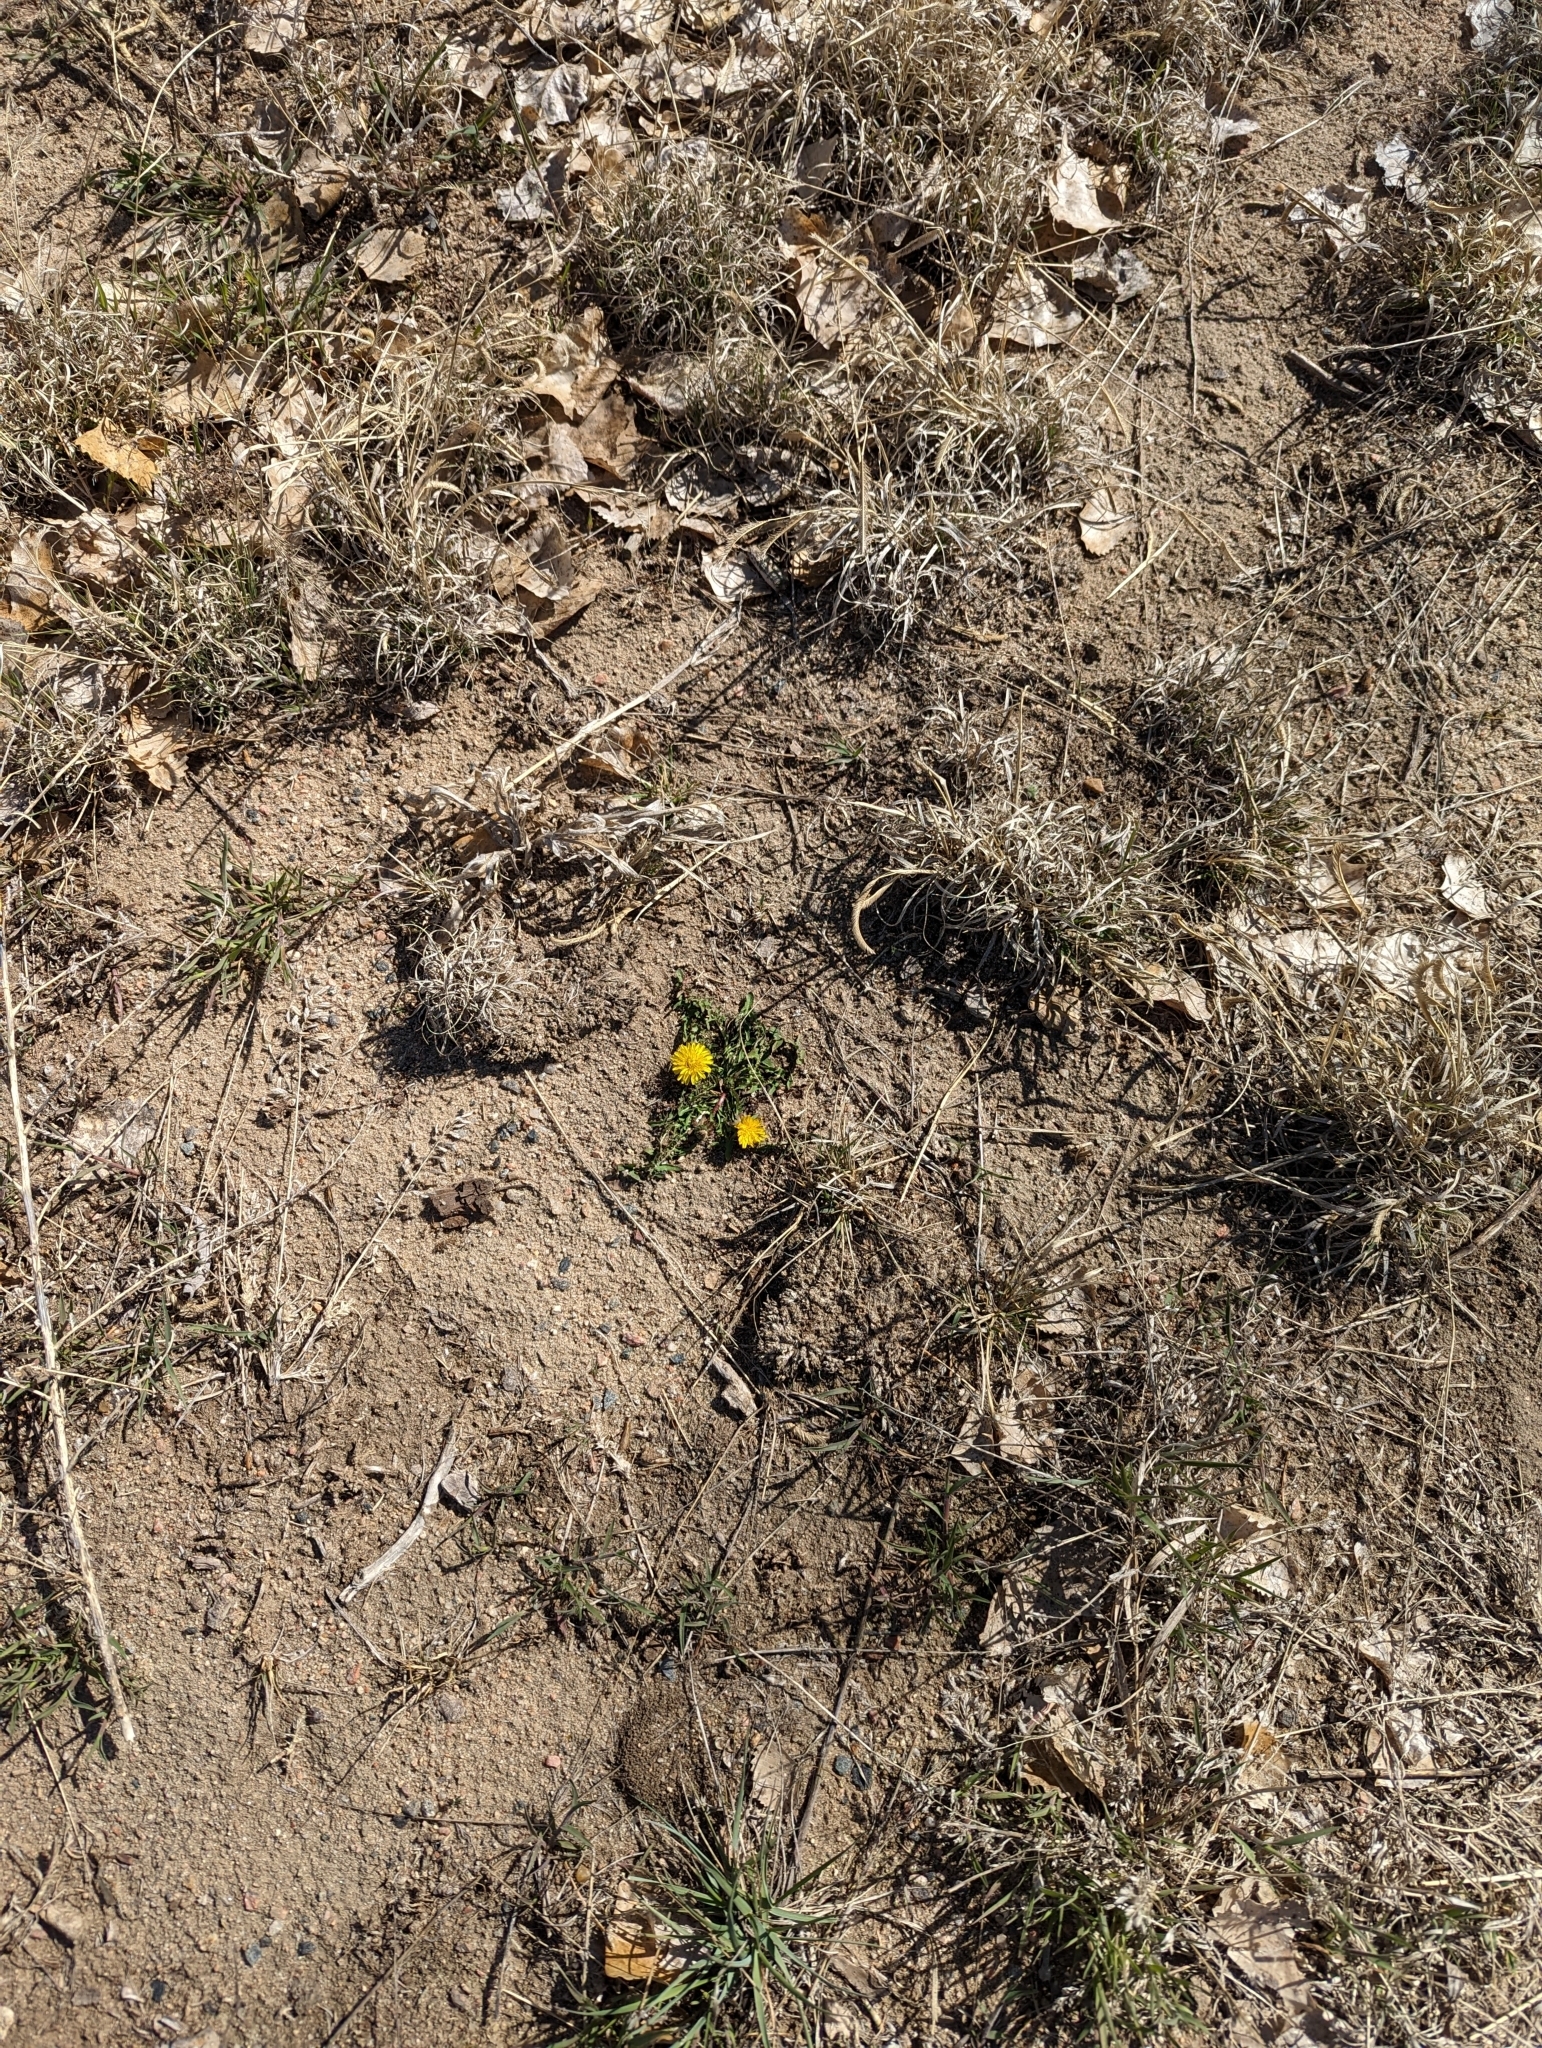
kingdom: Plantae
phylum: Tracheophyta
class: Magnoliopsida
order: Asterales
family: Asteraceae
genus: Taraxacum
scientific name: Taraxacum officinale
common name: Common dandelion
